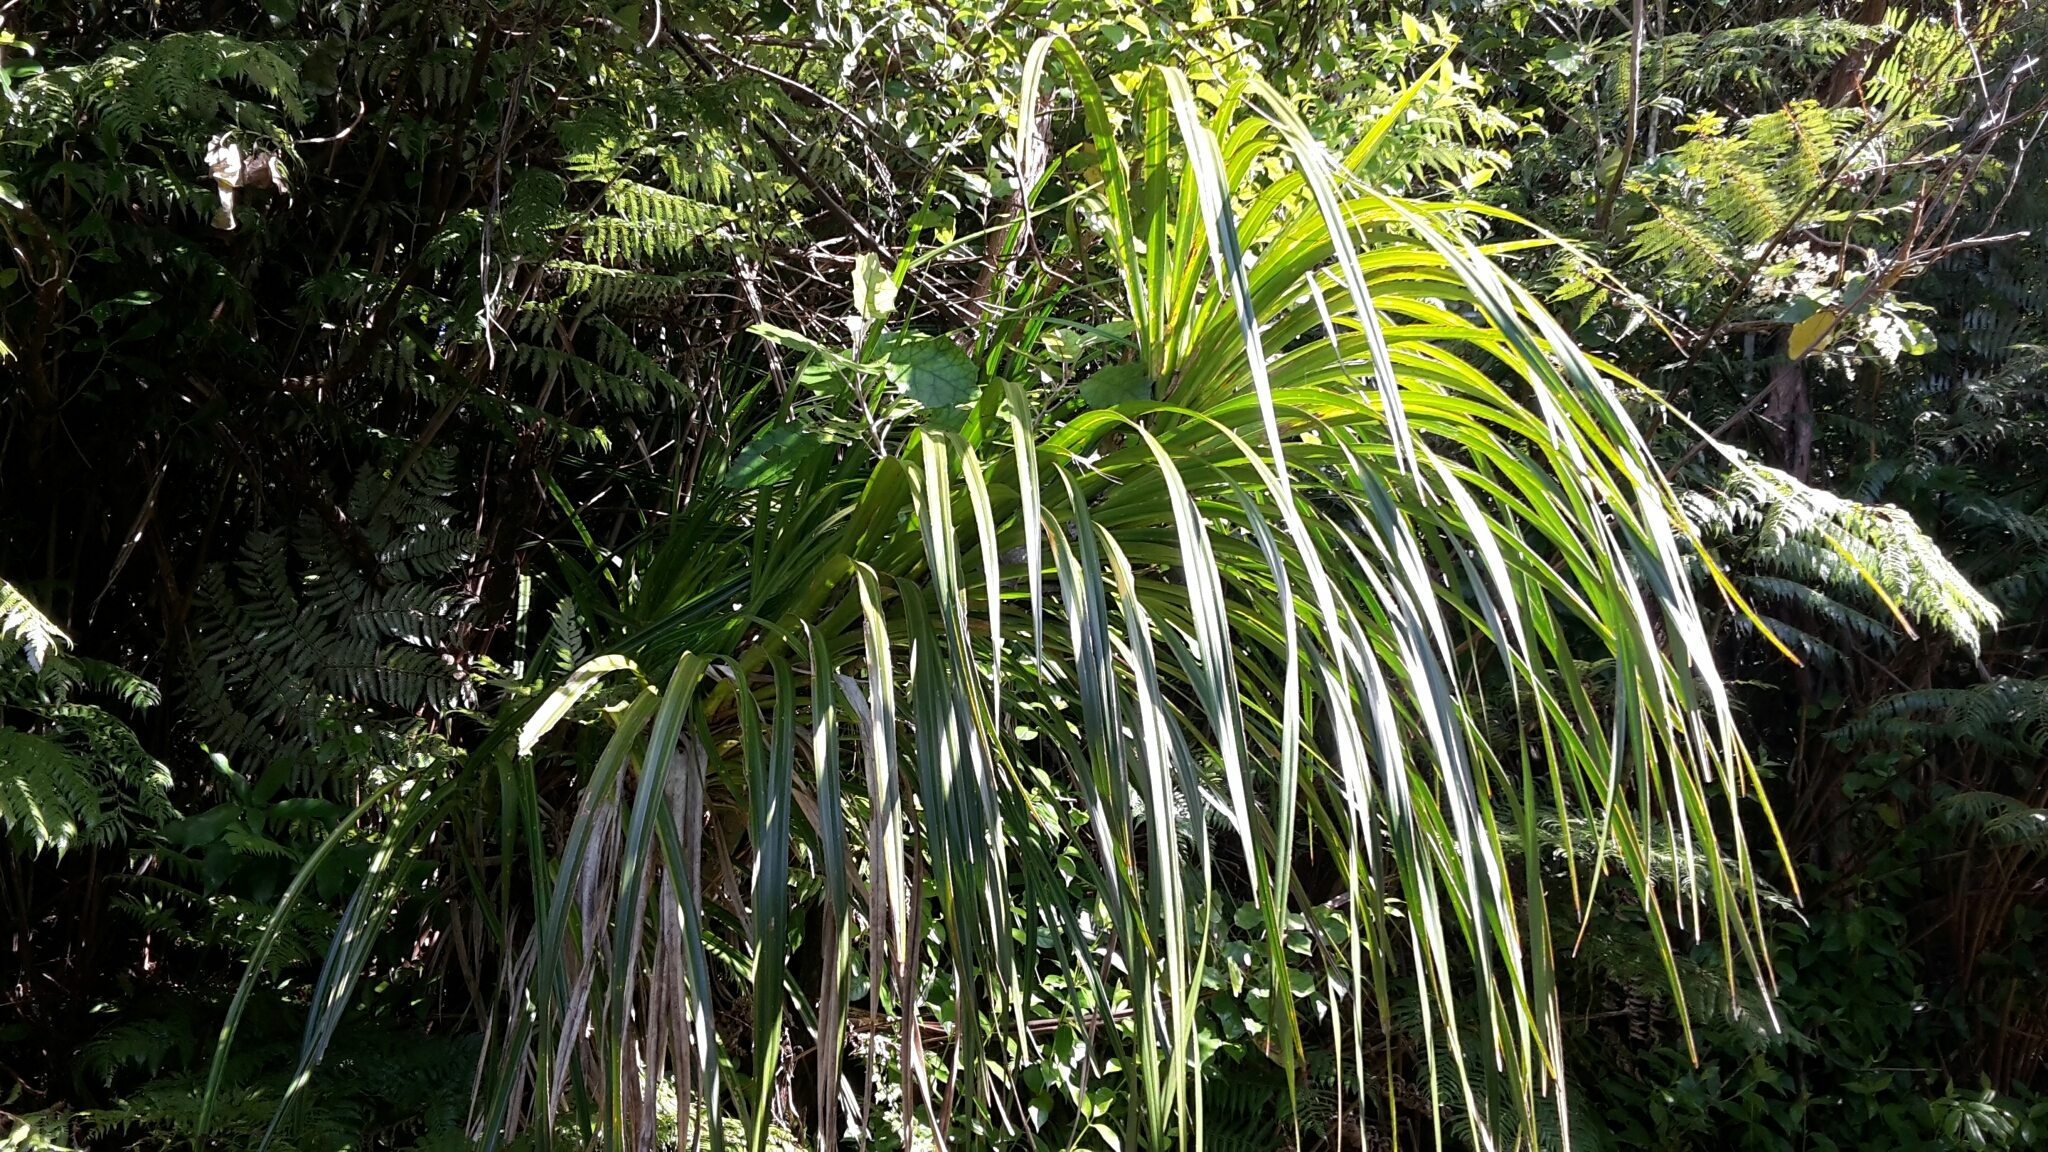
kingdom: Plantae
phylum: Tracheophyta
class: Liliopsida
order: Pandanales
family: Pandanaceae
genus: Freycinetia
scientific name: Freycinetia banksii
